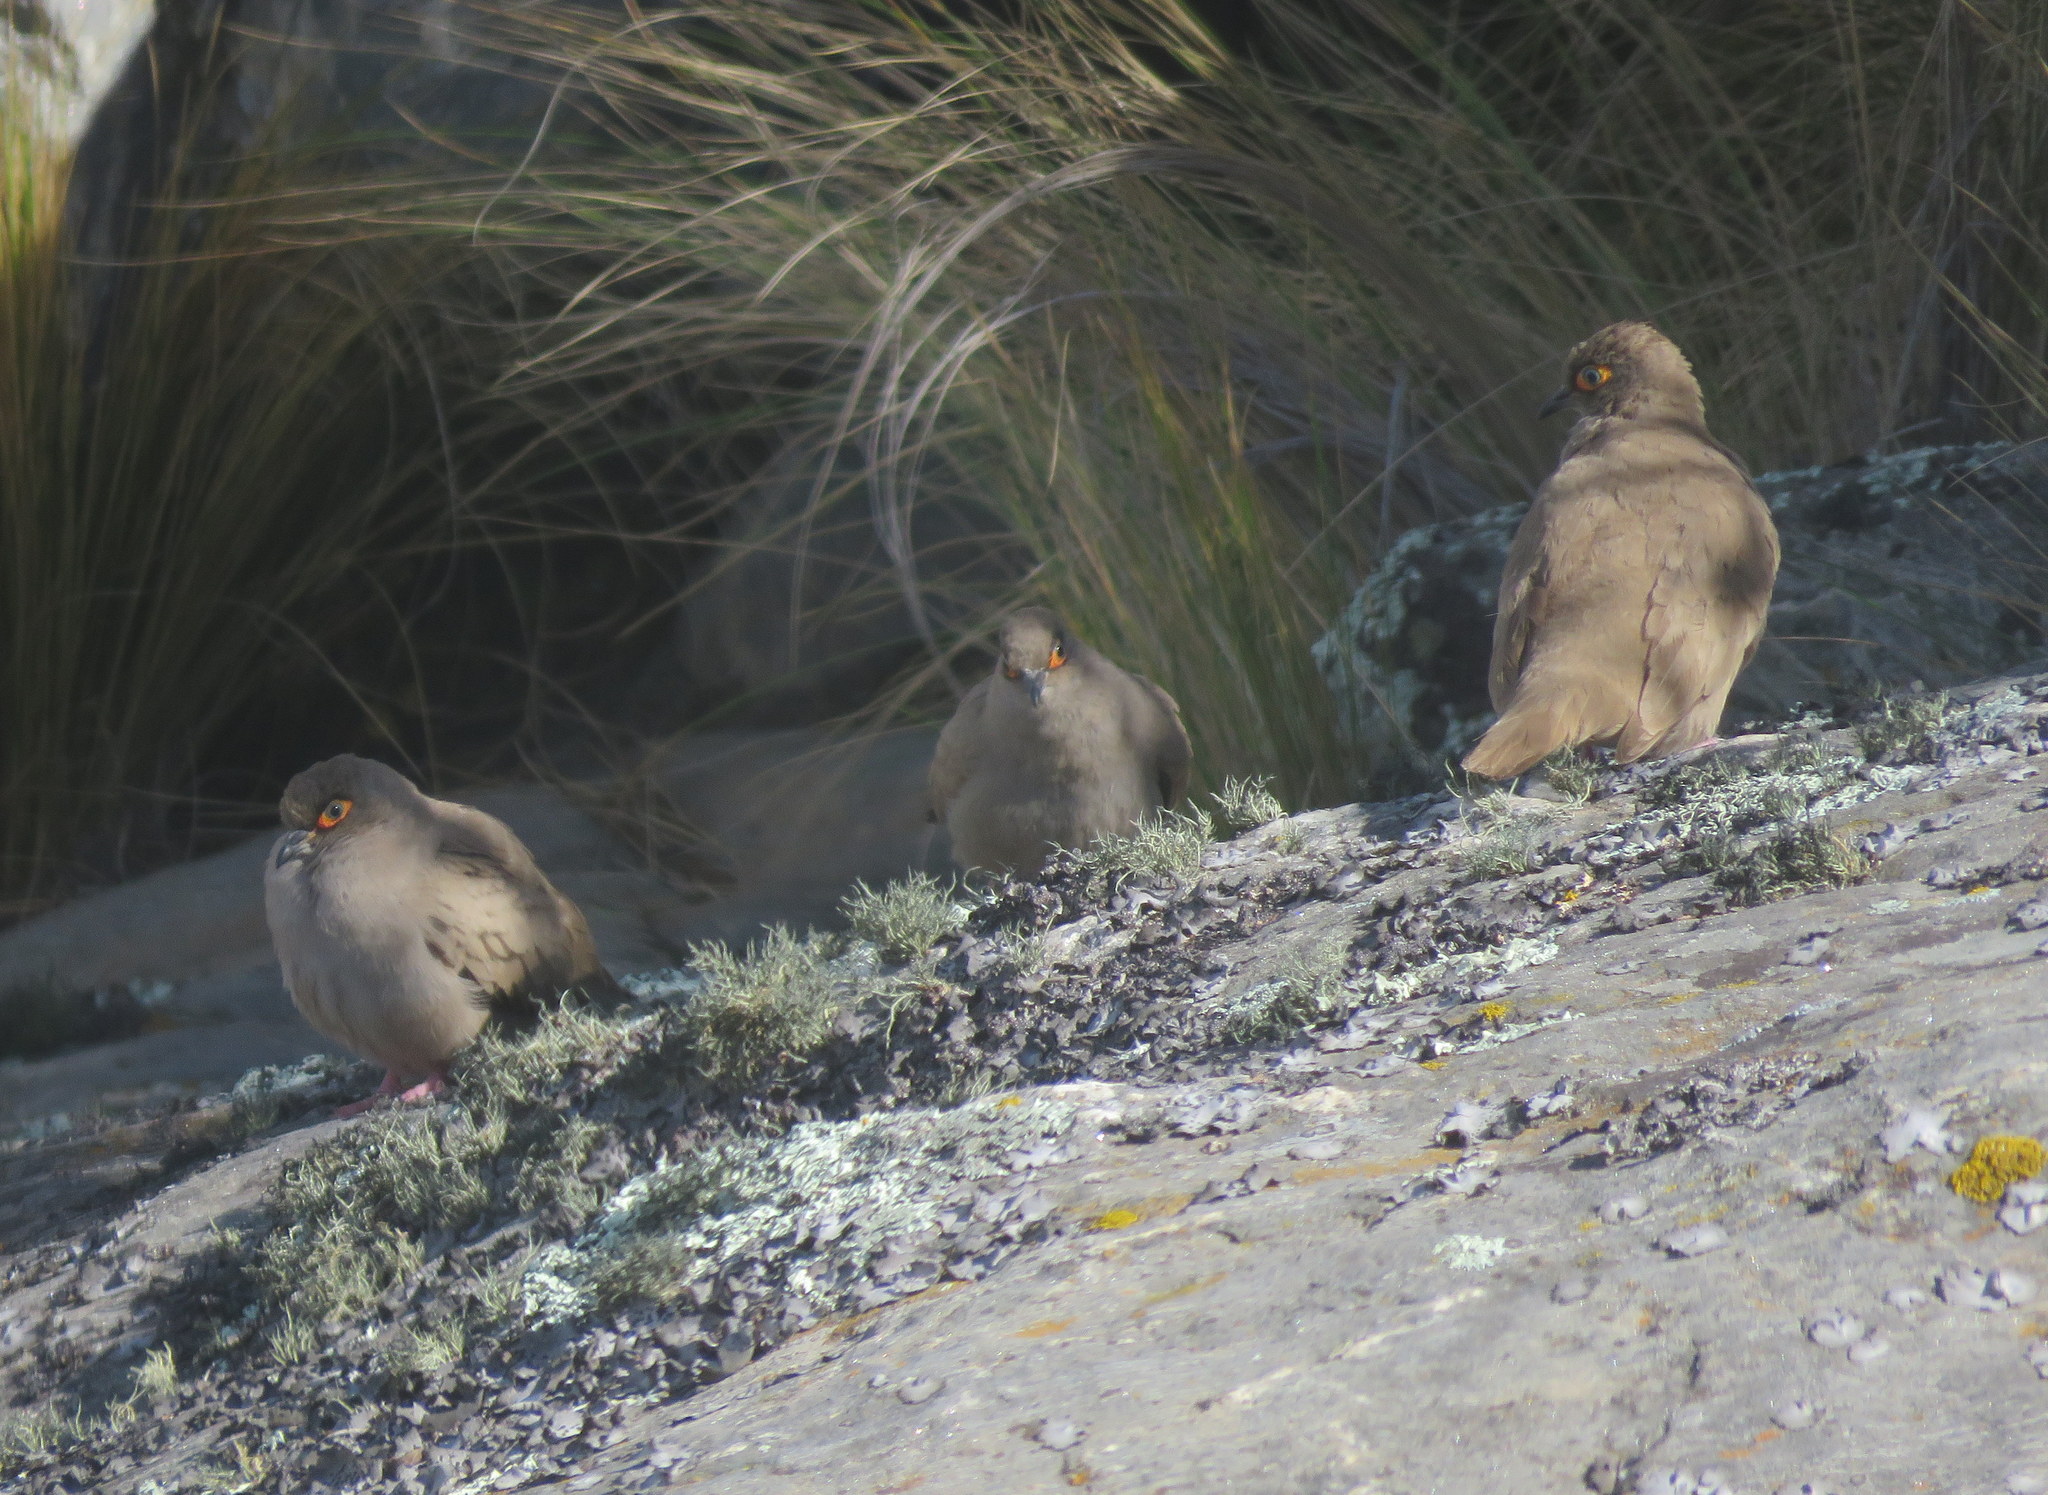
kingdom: Animalia
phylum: Chordata
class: Aves
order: Columbiformes
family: Columbidae
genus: Metriopelia
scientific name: Metriopelia morenoi
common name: Moreno's ground dove
